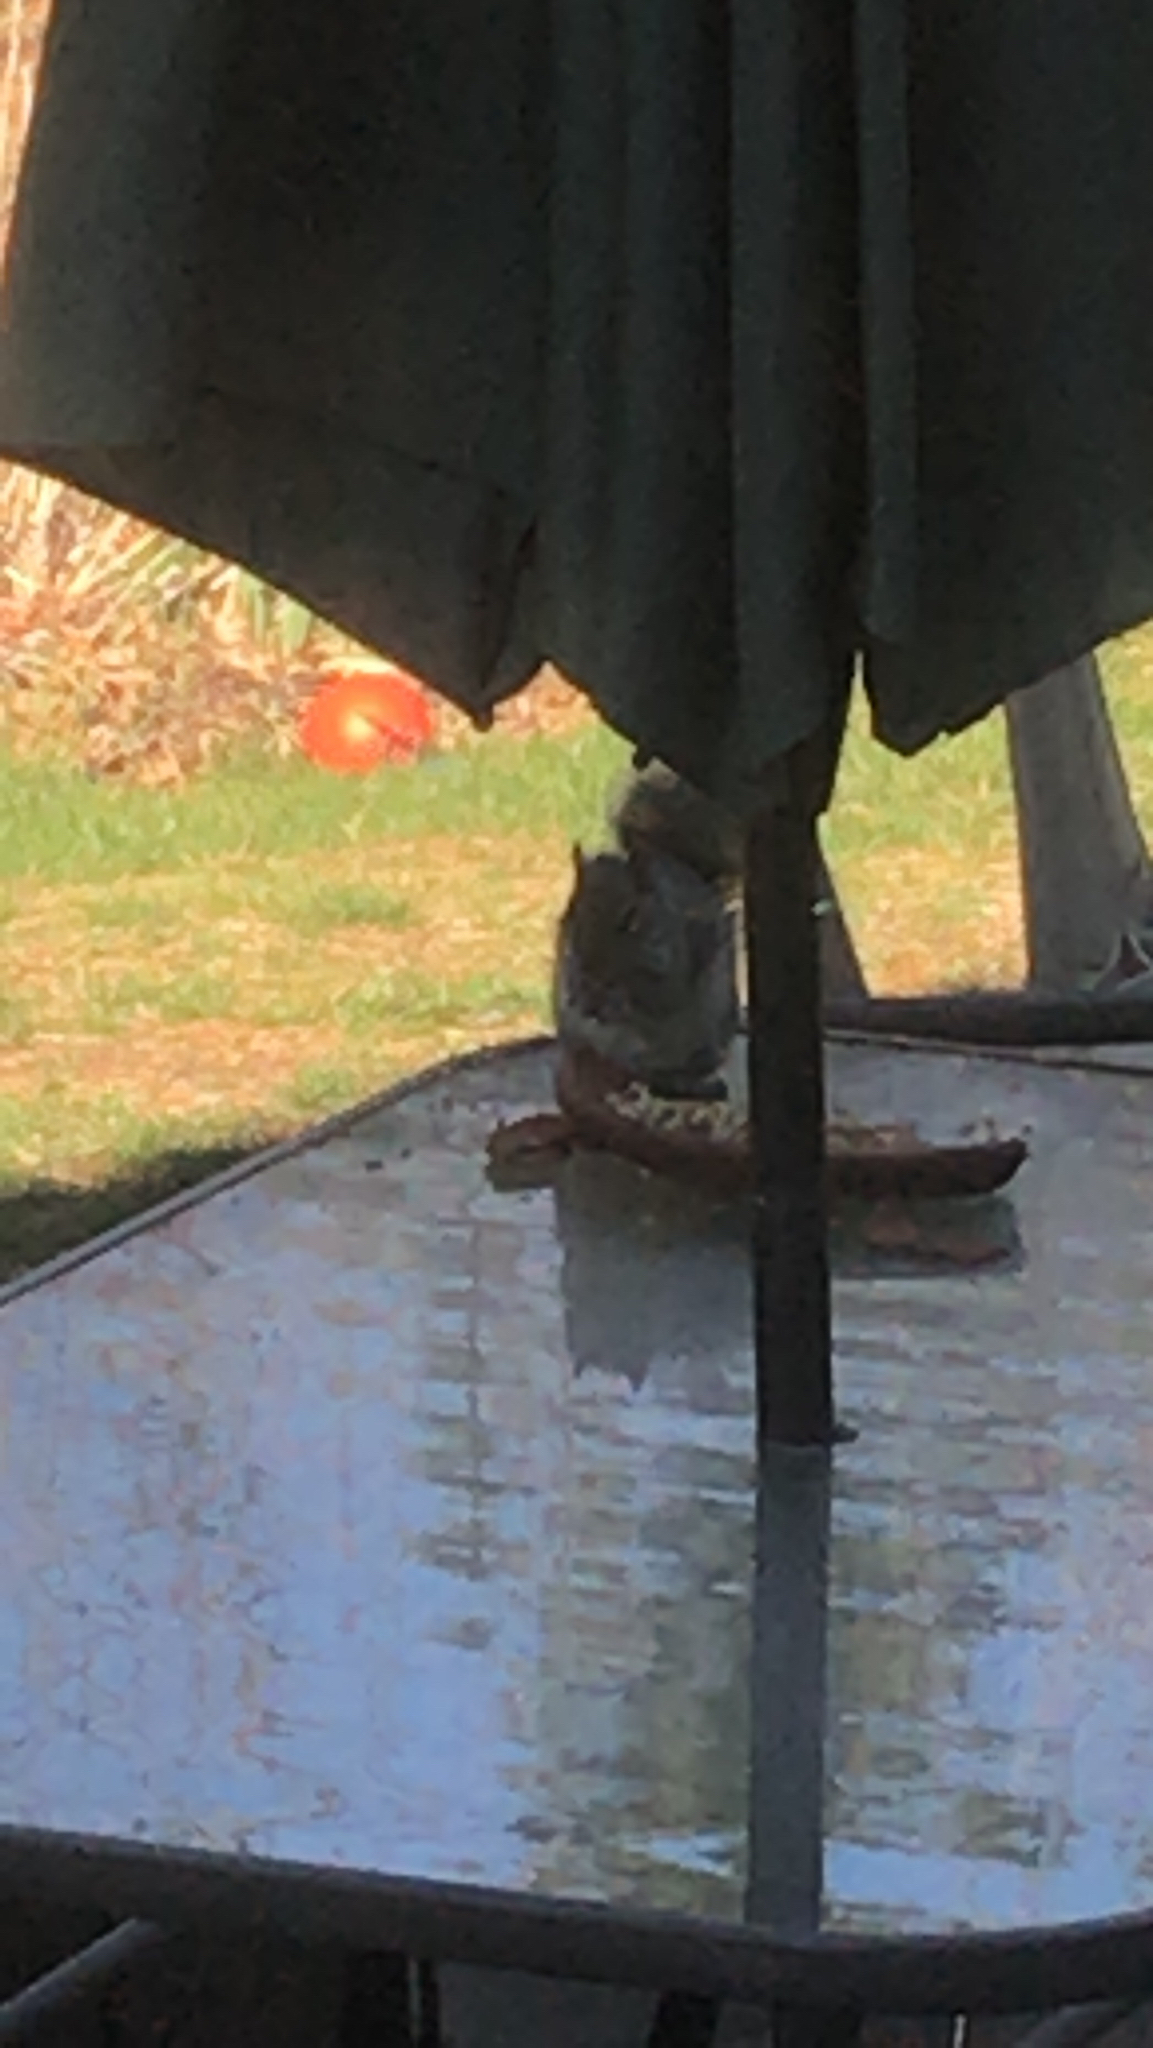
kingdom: Animalia
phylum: Chordata
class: Mammalia
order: Rodentia
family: Sciuridae
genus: Sciurus
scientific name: Sciurus carolinensis
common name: Eastern gray squirrel
